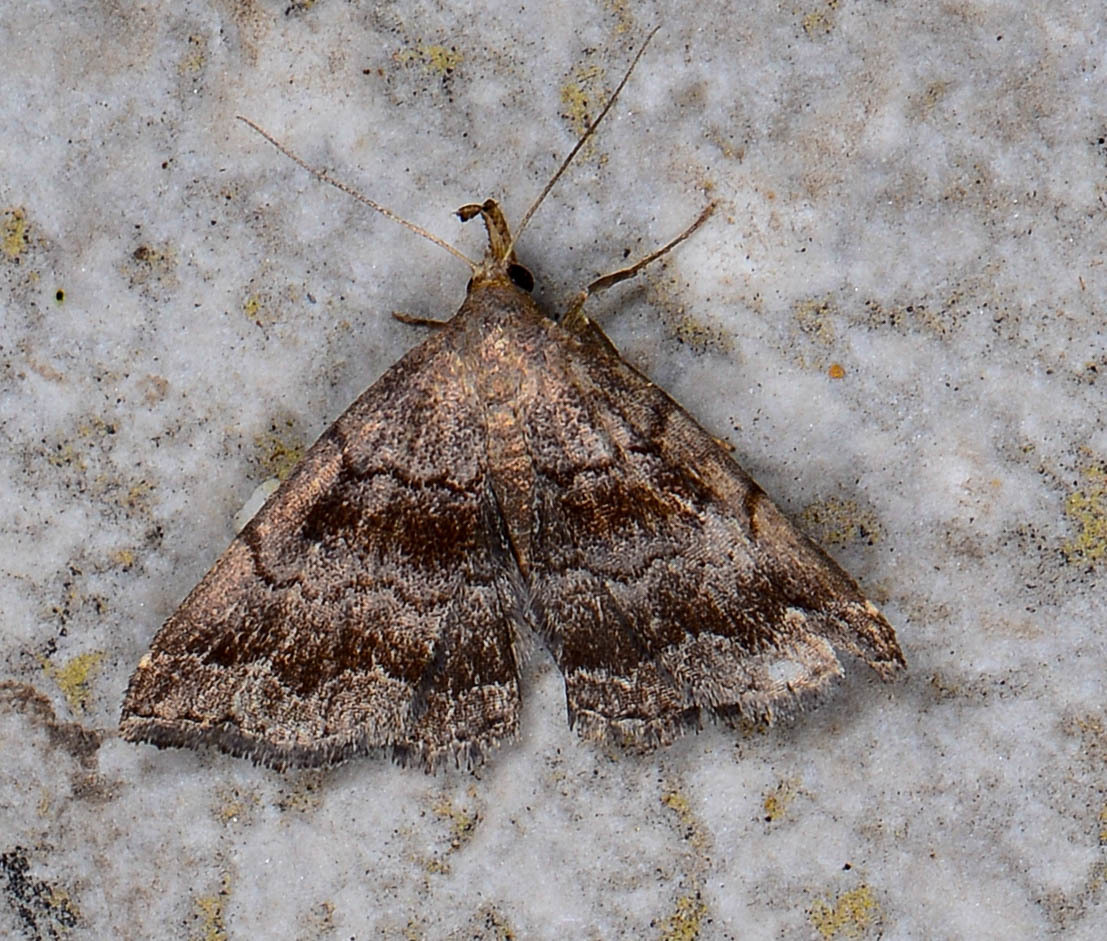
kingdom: Animalia
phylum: Arthropoda
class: Insecta
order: Lepidoptera
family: Erebidae
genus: Phalaenostola
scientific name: Phalaenostola larentioides
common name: Black-banded owlet
